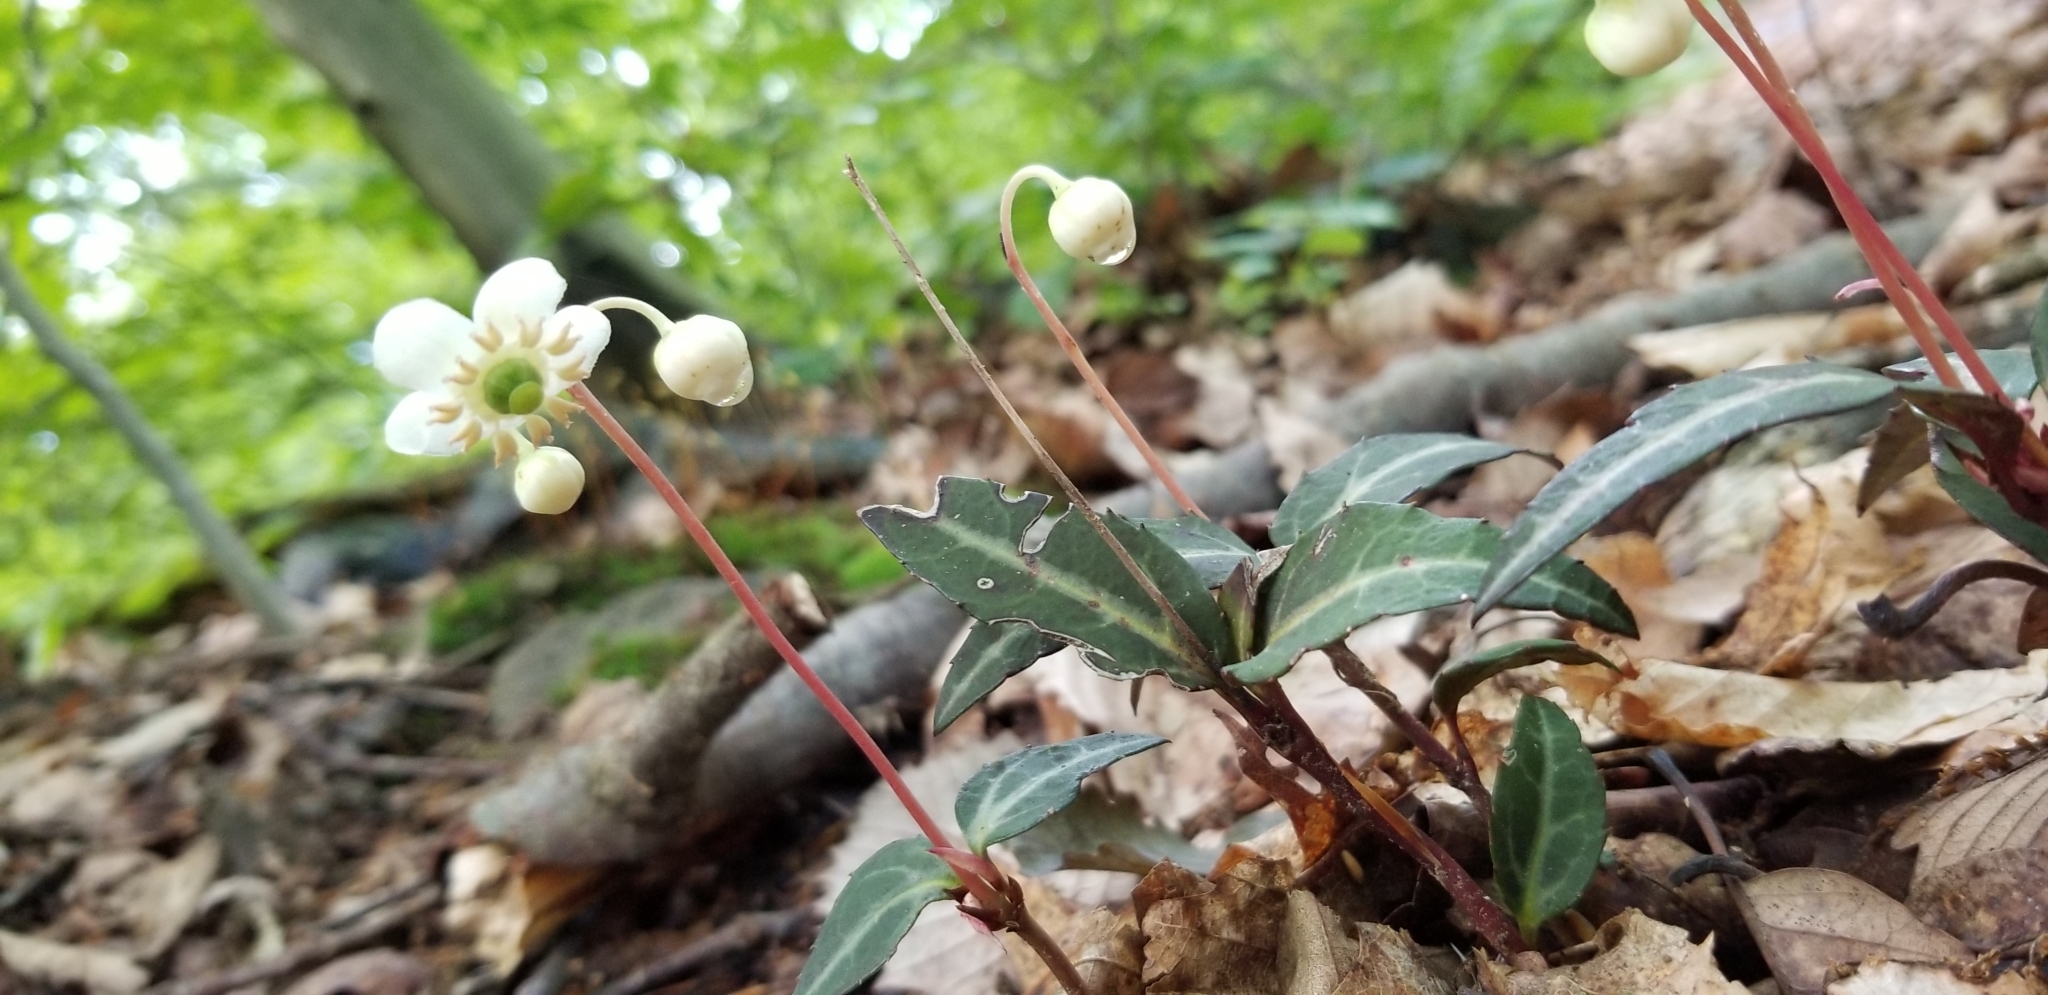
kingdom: Plantae
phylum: Tracheophyta
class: Magnoliopsida
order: Ericales
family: Ericaceae
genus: Chimaphila
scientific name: Chimaphila maculata
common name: Spotted pipsissewa
